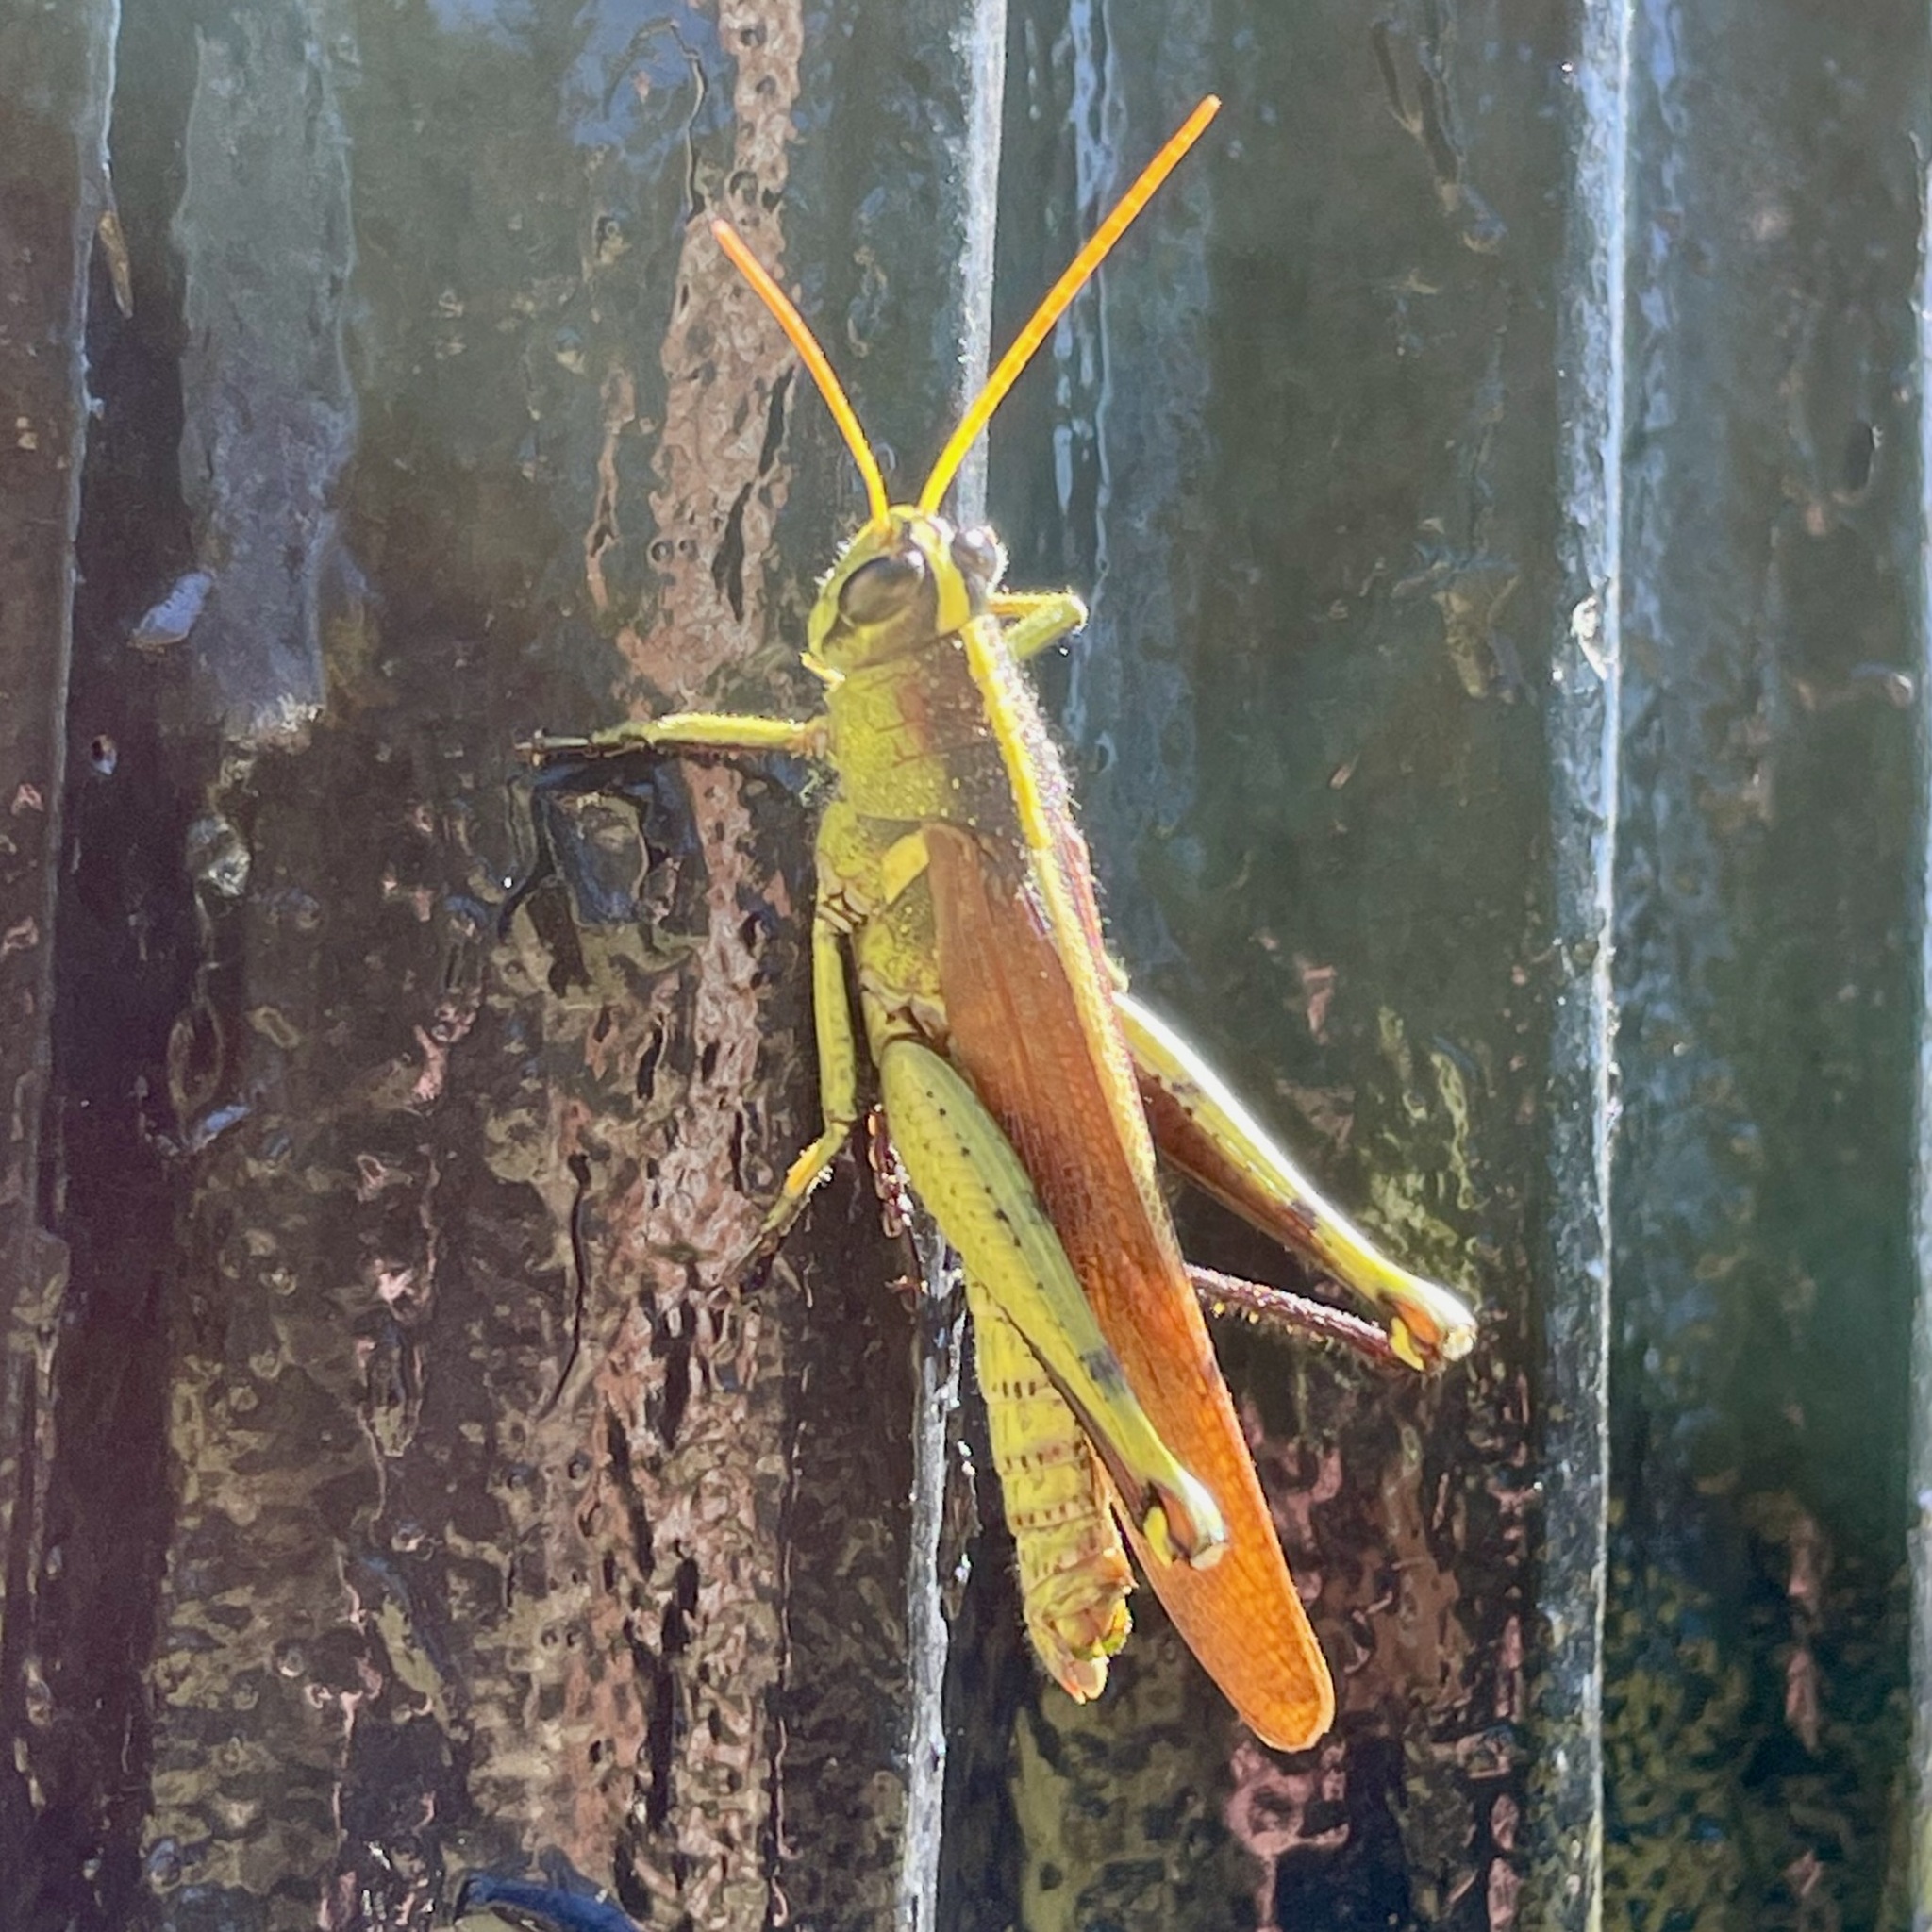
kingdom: Animalia
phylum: Arthropoda
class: Insecta
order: Orthoptera
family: Acrididae
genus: Schistocerca
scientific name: Schistocerca obscura
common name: Obscure bird grasshopper
